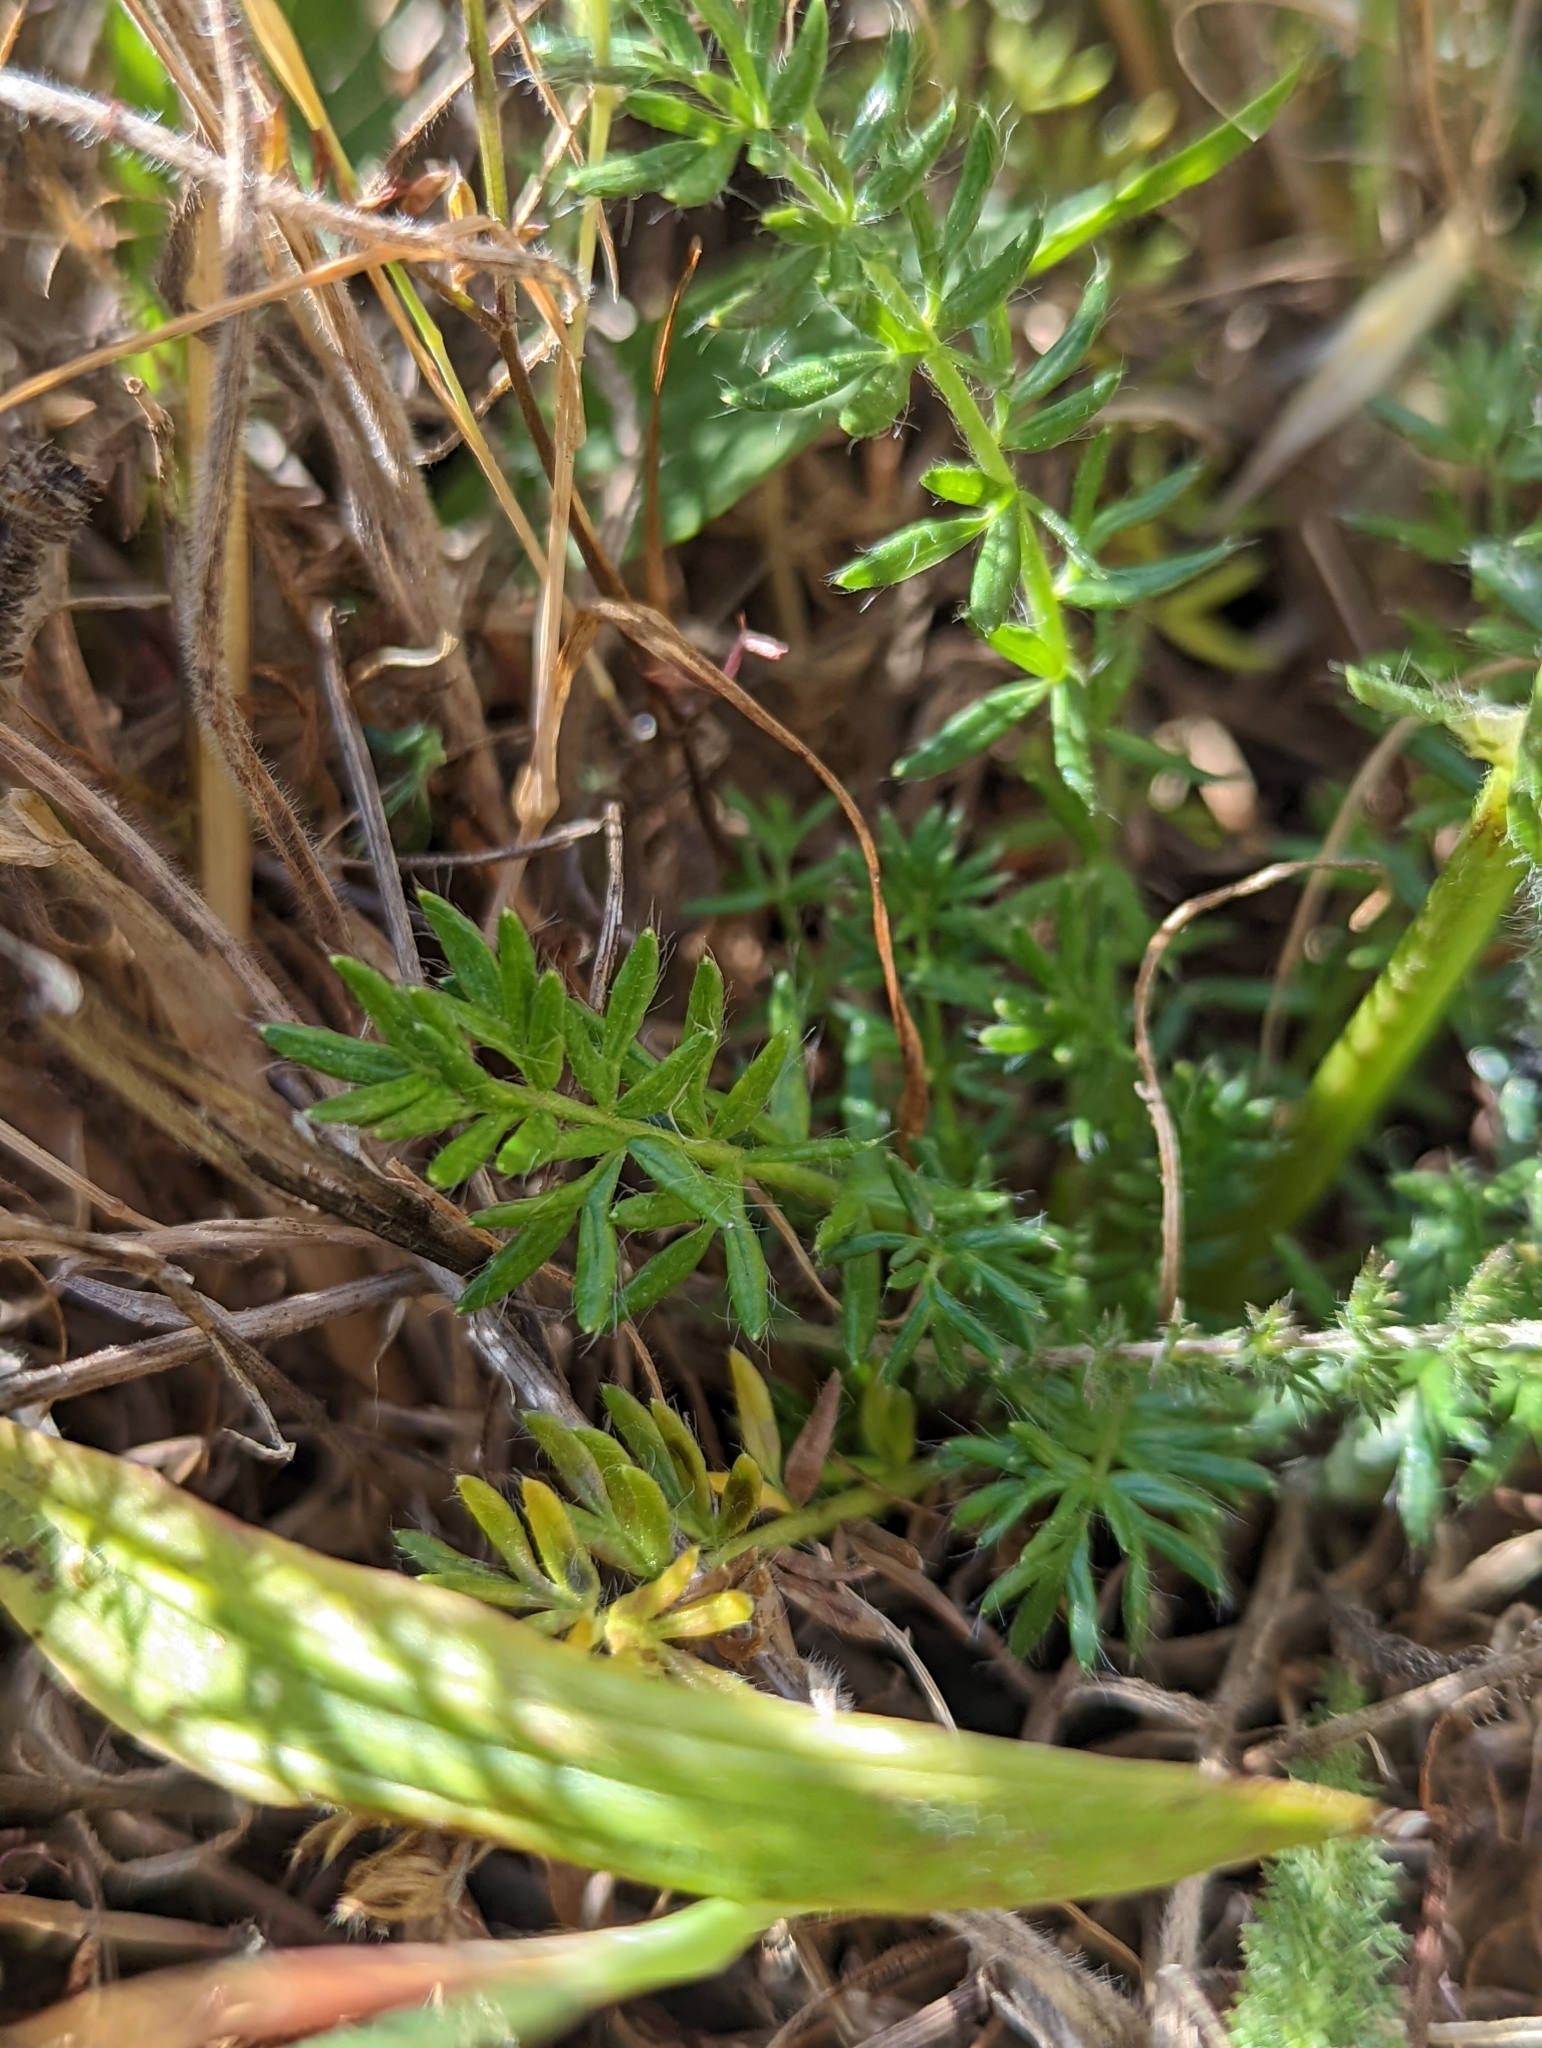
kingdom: Plantae
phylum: Tracheophyta
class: Magnoliopsida
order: Rosales
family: Rosaceae
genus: Acaena
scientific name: Acaena pinnatifida
